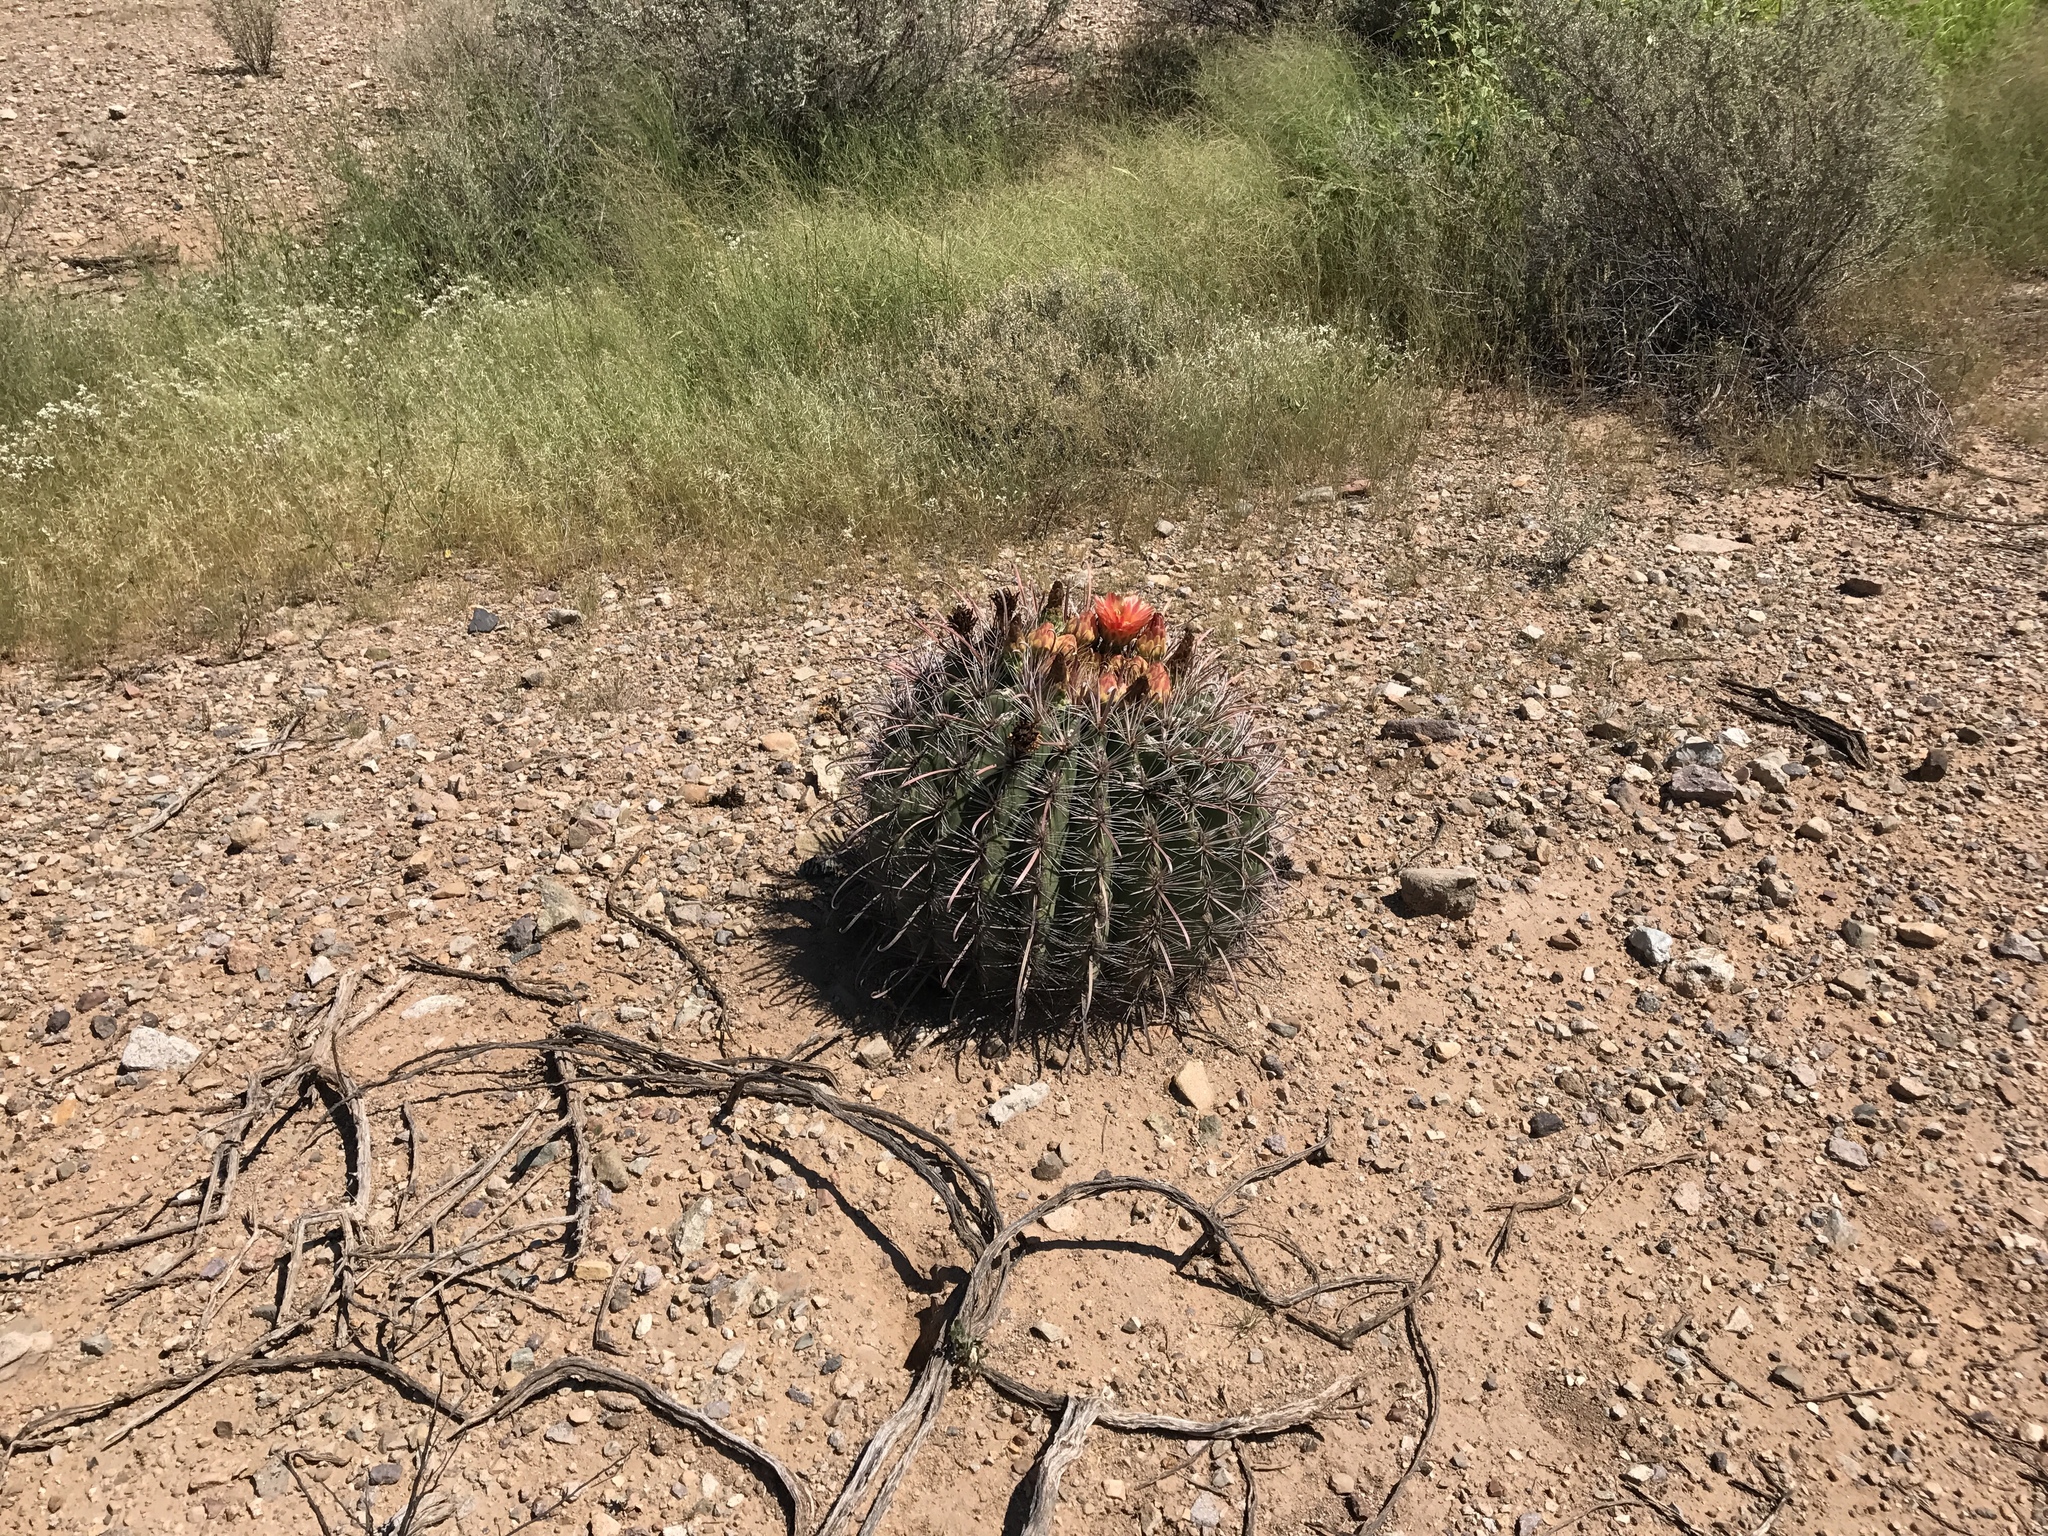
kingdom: Plantae
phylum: Tracheophyta
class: Magnoliopsida
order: Caryophyllales
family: Cactaceae
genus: Ferocactus
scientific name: Ferocactus wislizeni
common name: Candy barrel cactus
